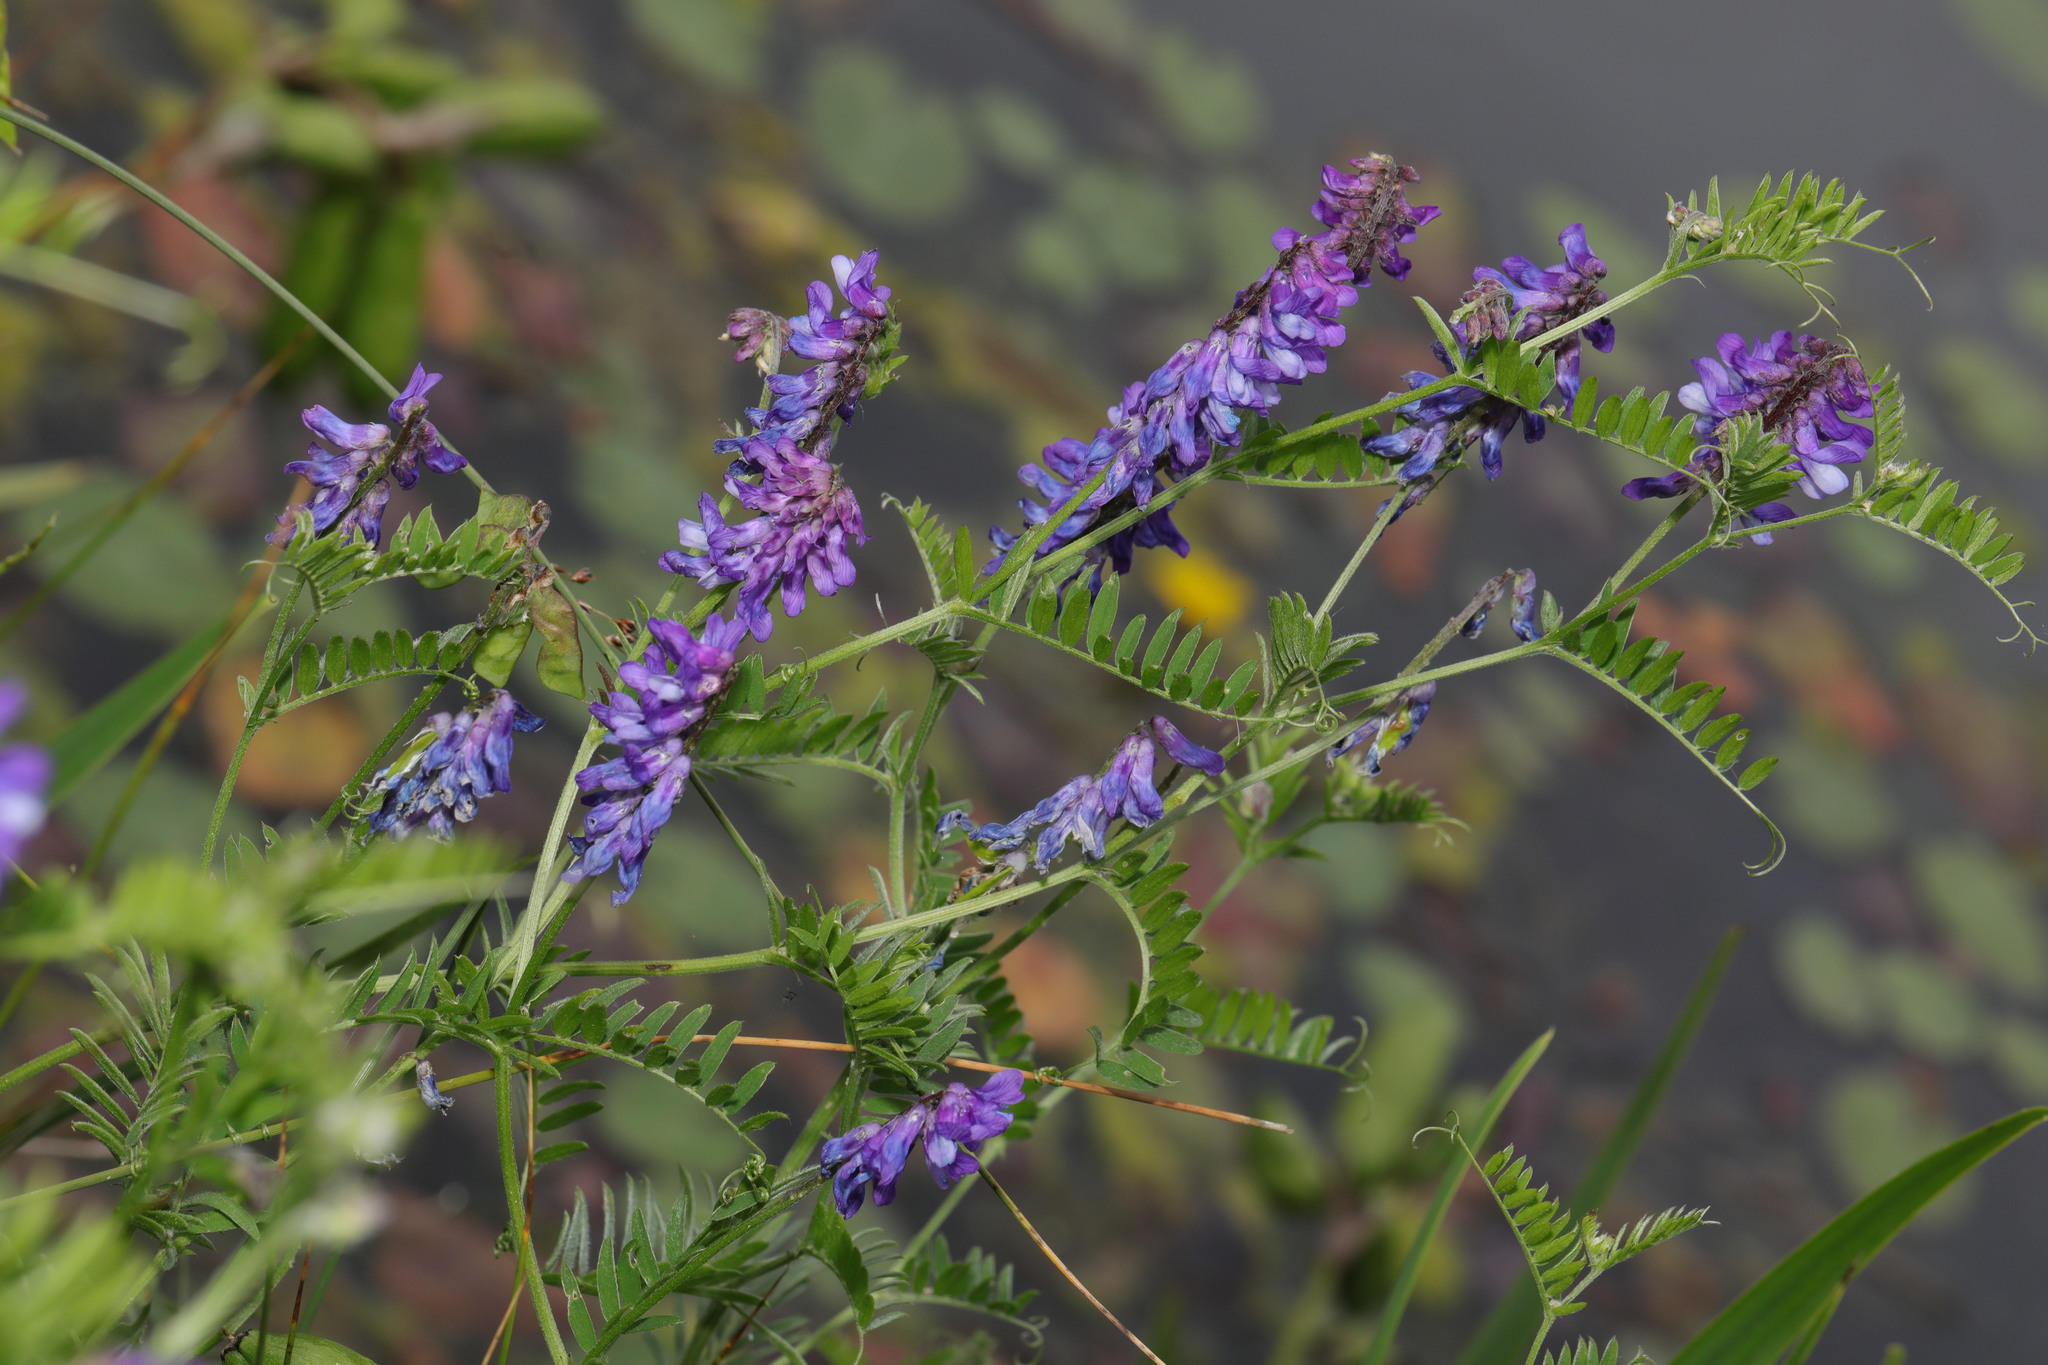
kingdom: Plantae
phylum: Tracheophyta
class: Magnoliopsida
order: Fabales
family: Fabaceae
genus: Vicia
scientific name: Vicia cracca
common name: Bird vetch
